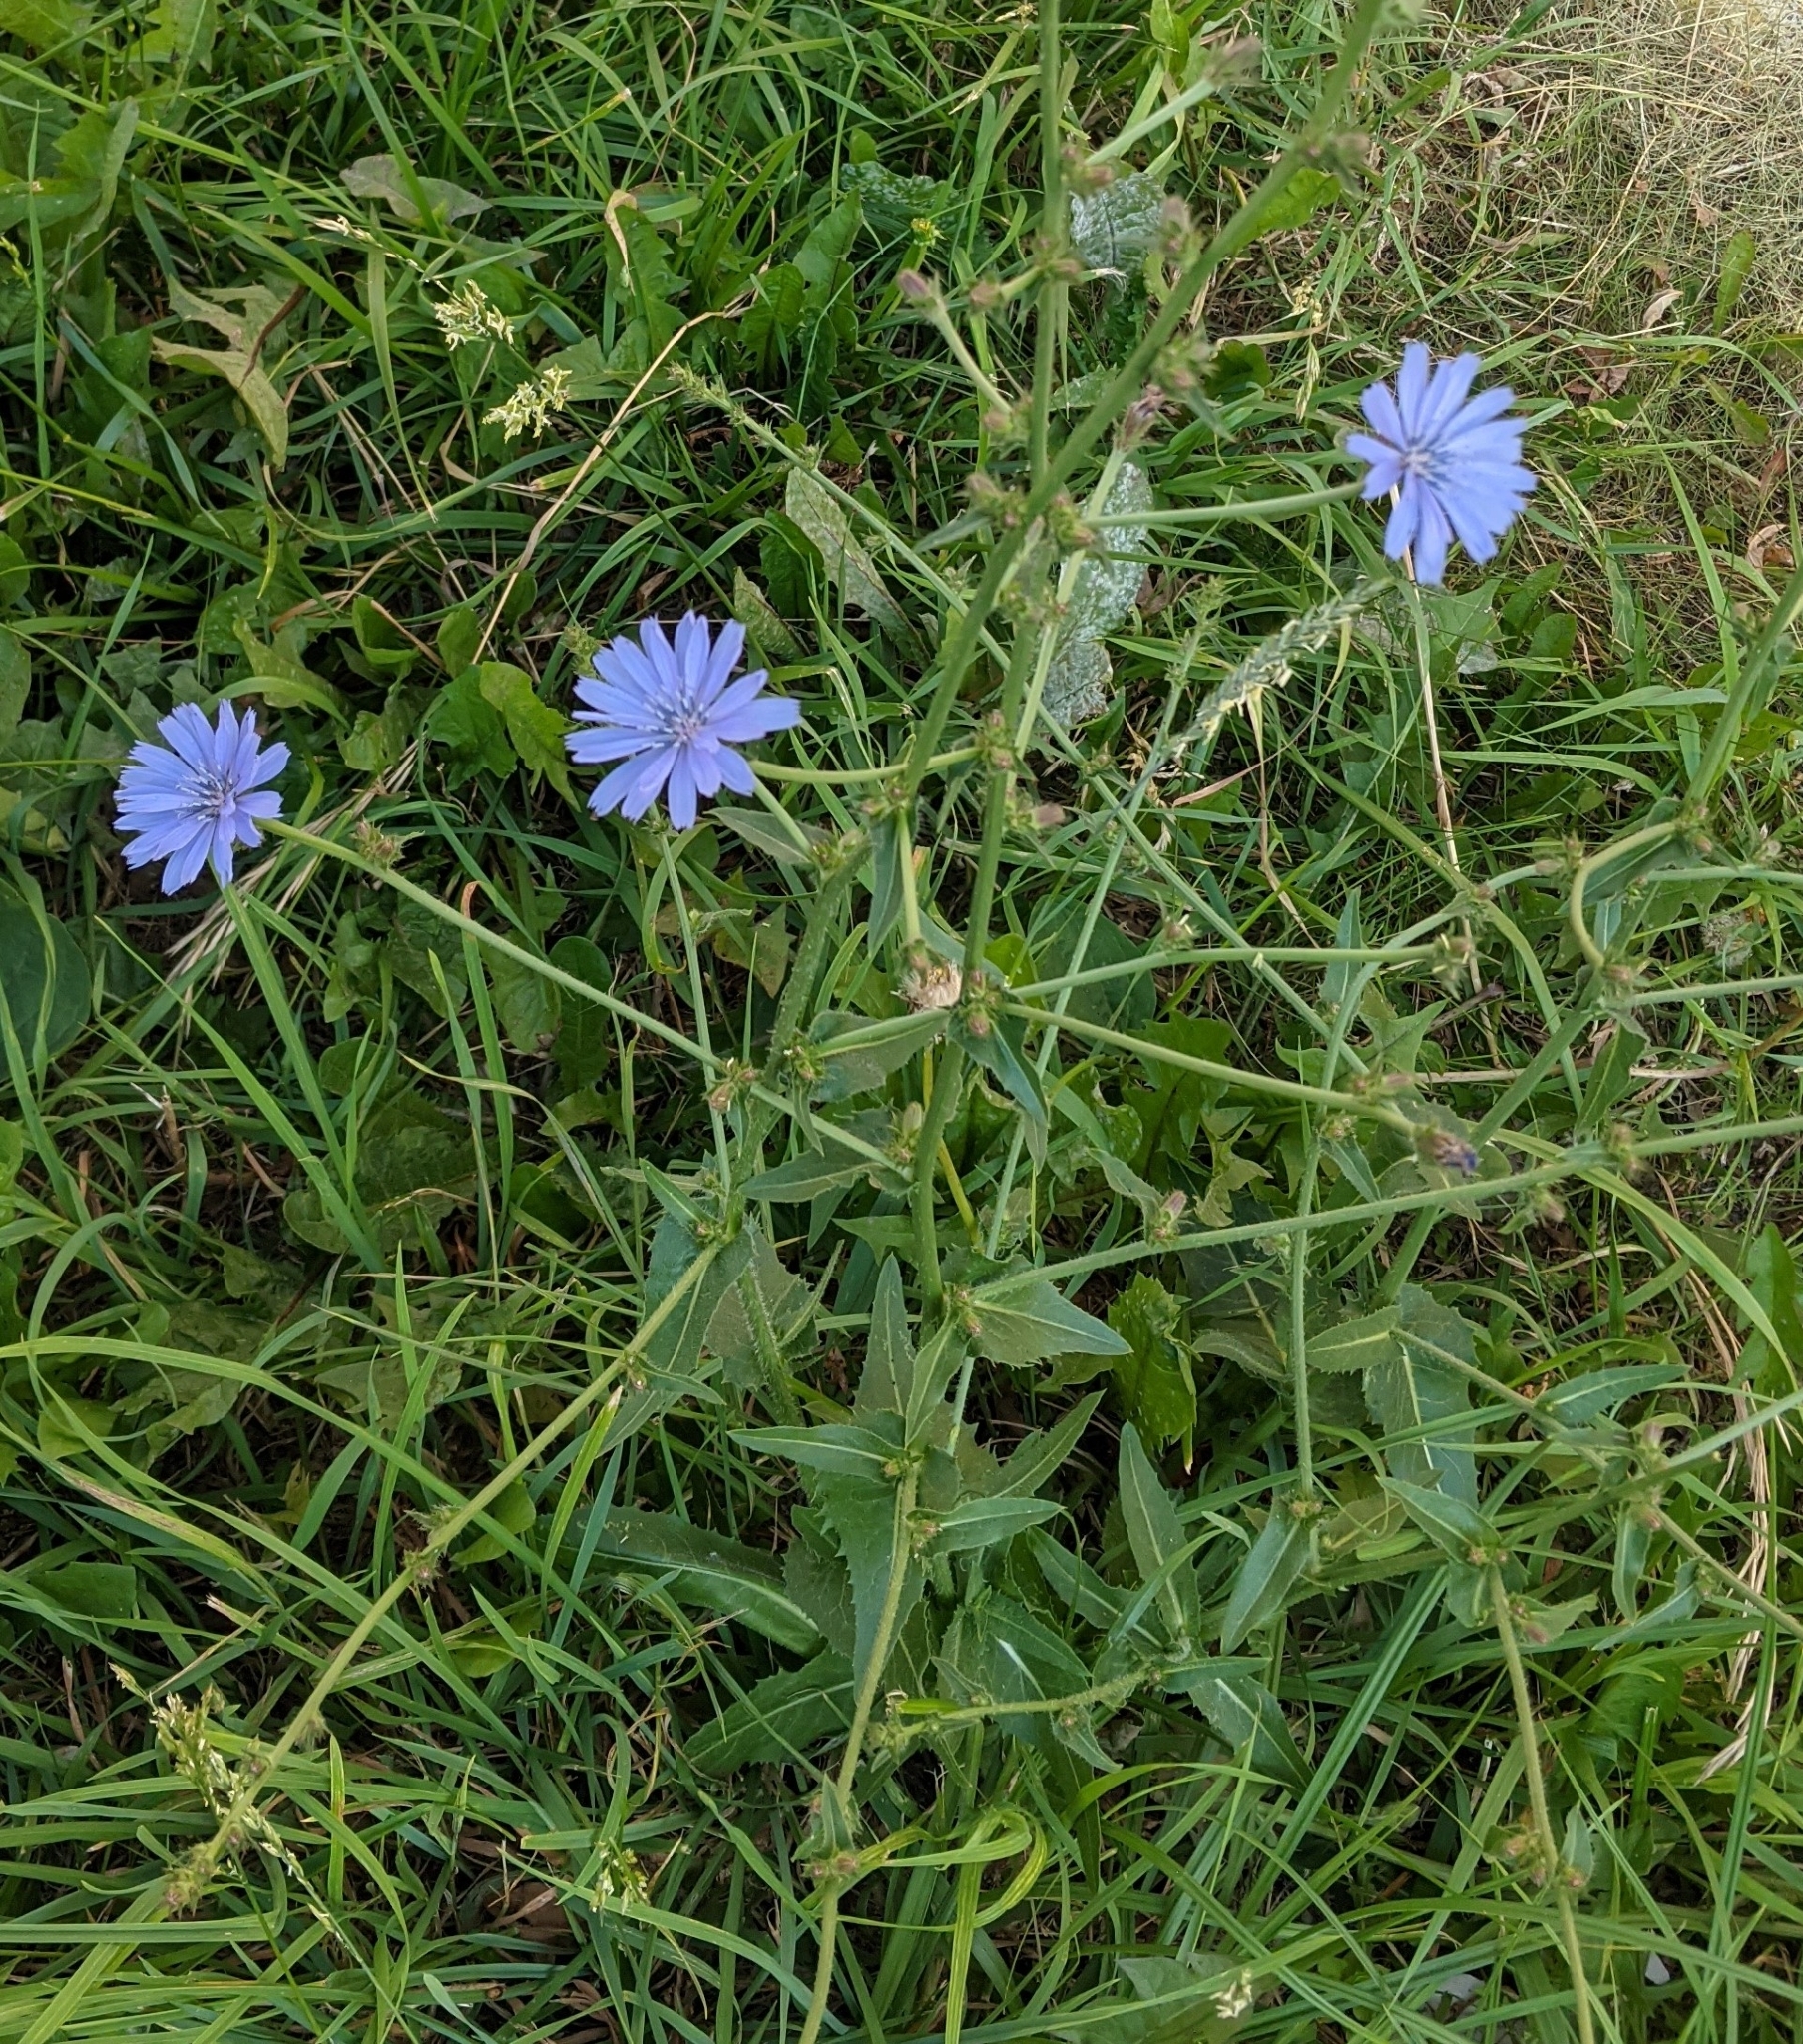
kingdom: Plantae
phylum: Tracheophyta
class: Magnoliopsida
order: Asterales
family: Asteraceae
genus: Cichorium
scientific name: Cichorium intybus
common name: Chicory
